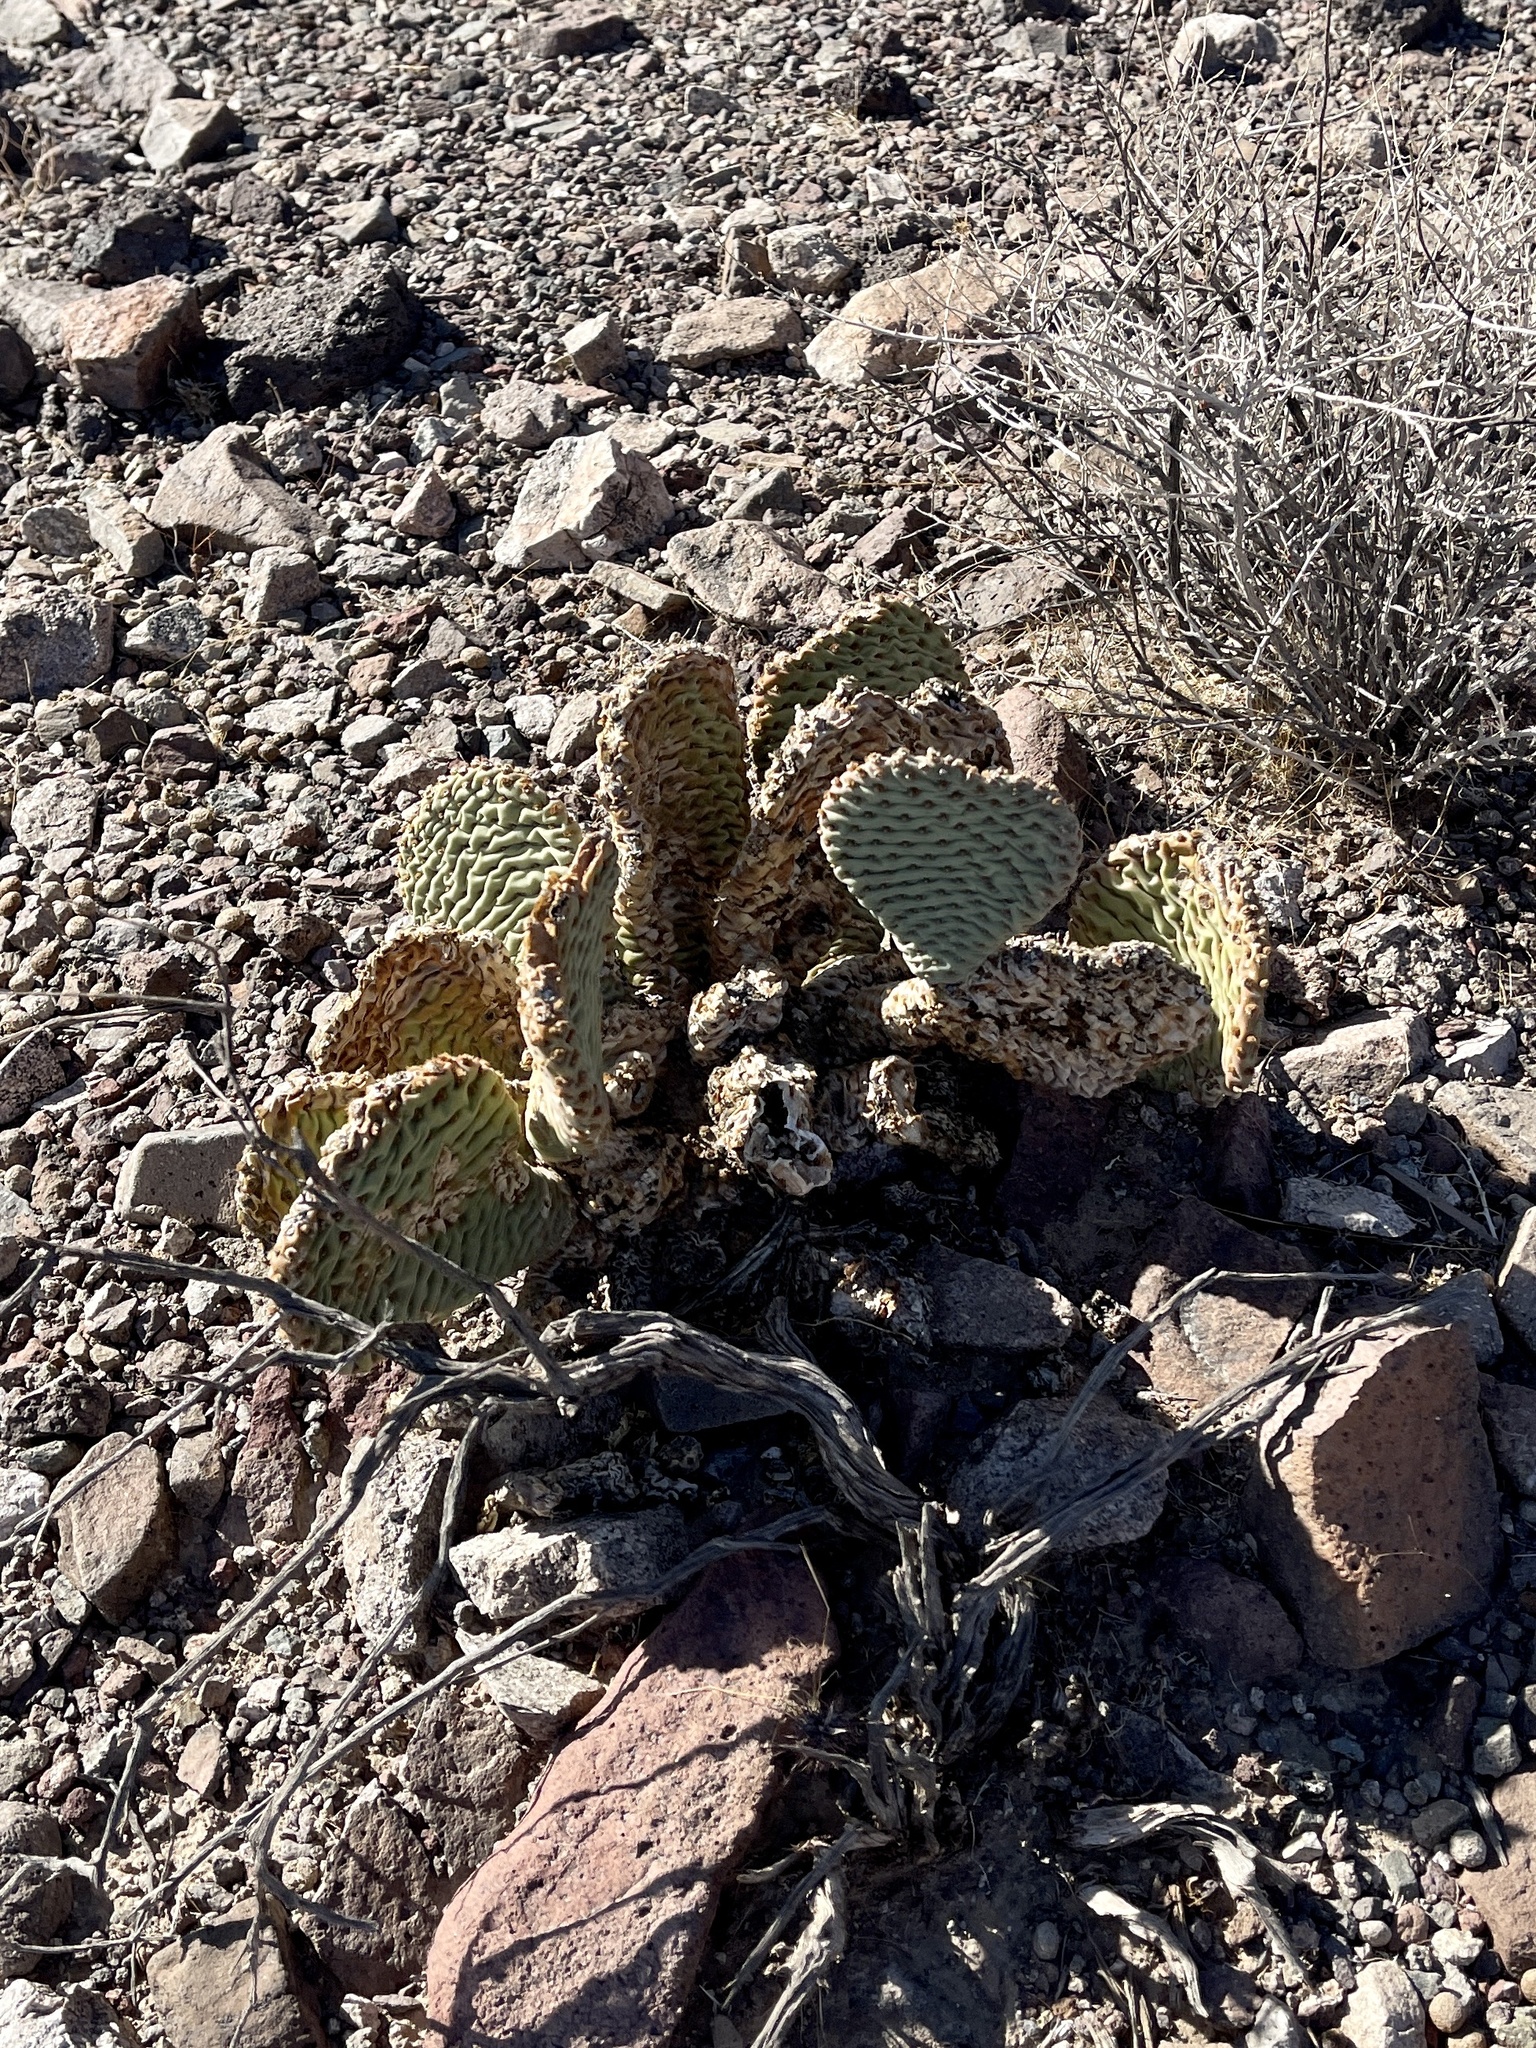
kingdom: Plantae
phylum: Tracheophyta
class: Magnoliopsida
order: Caryophyllales
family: Cactaceae
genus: Opuntia
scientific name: Opuntia basilaris
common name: Beavertail prickly-pear
